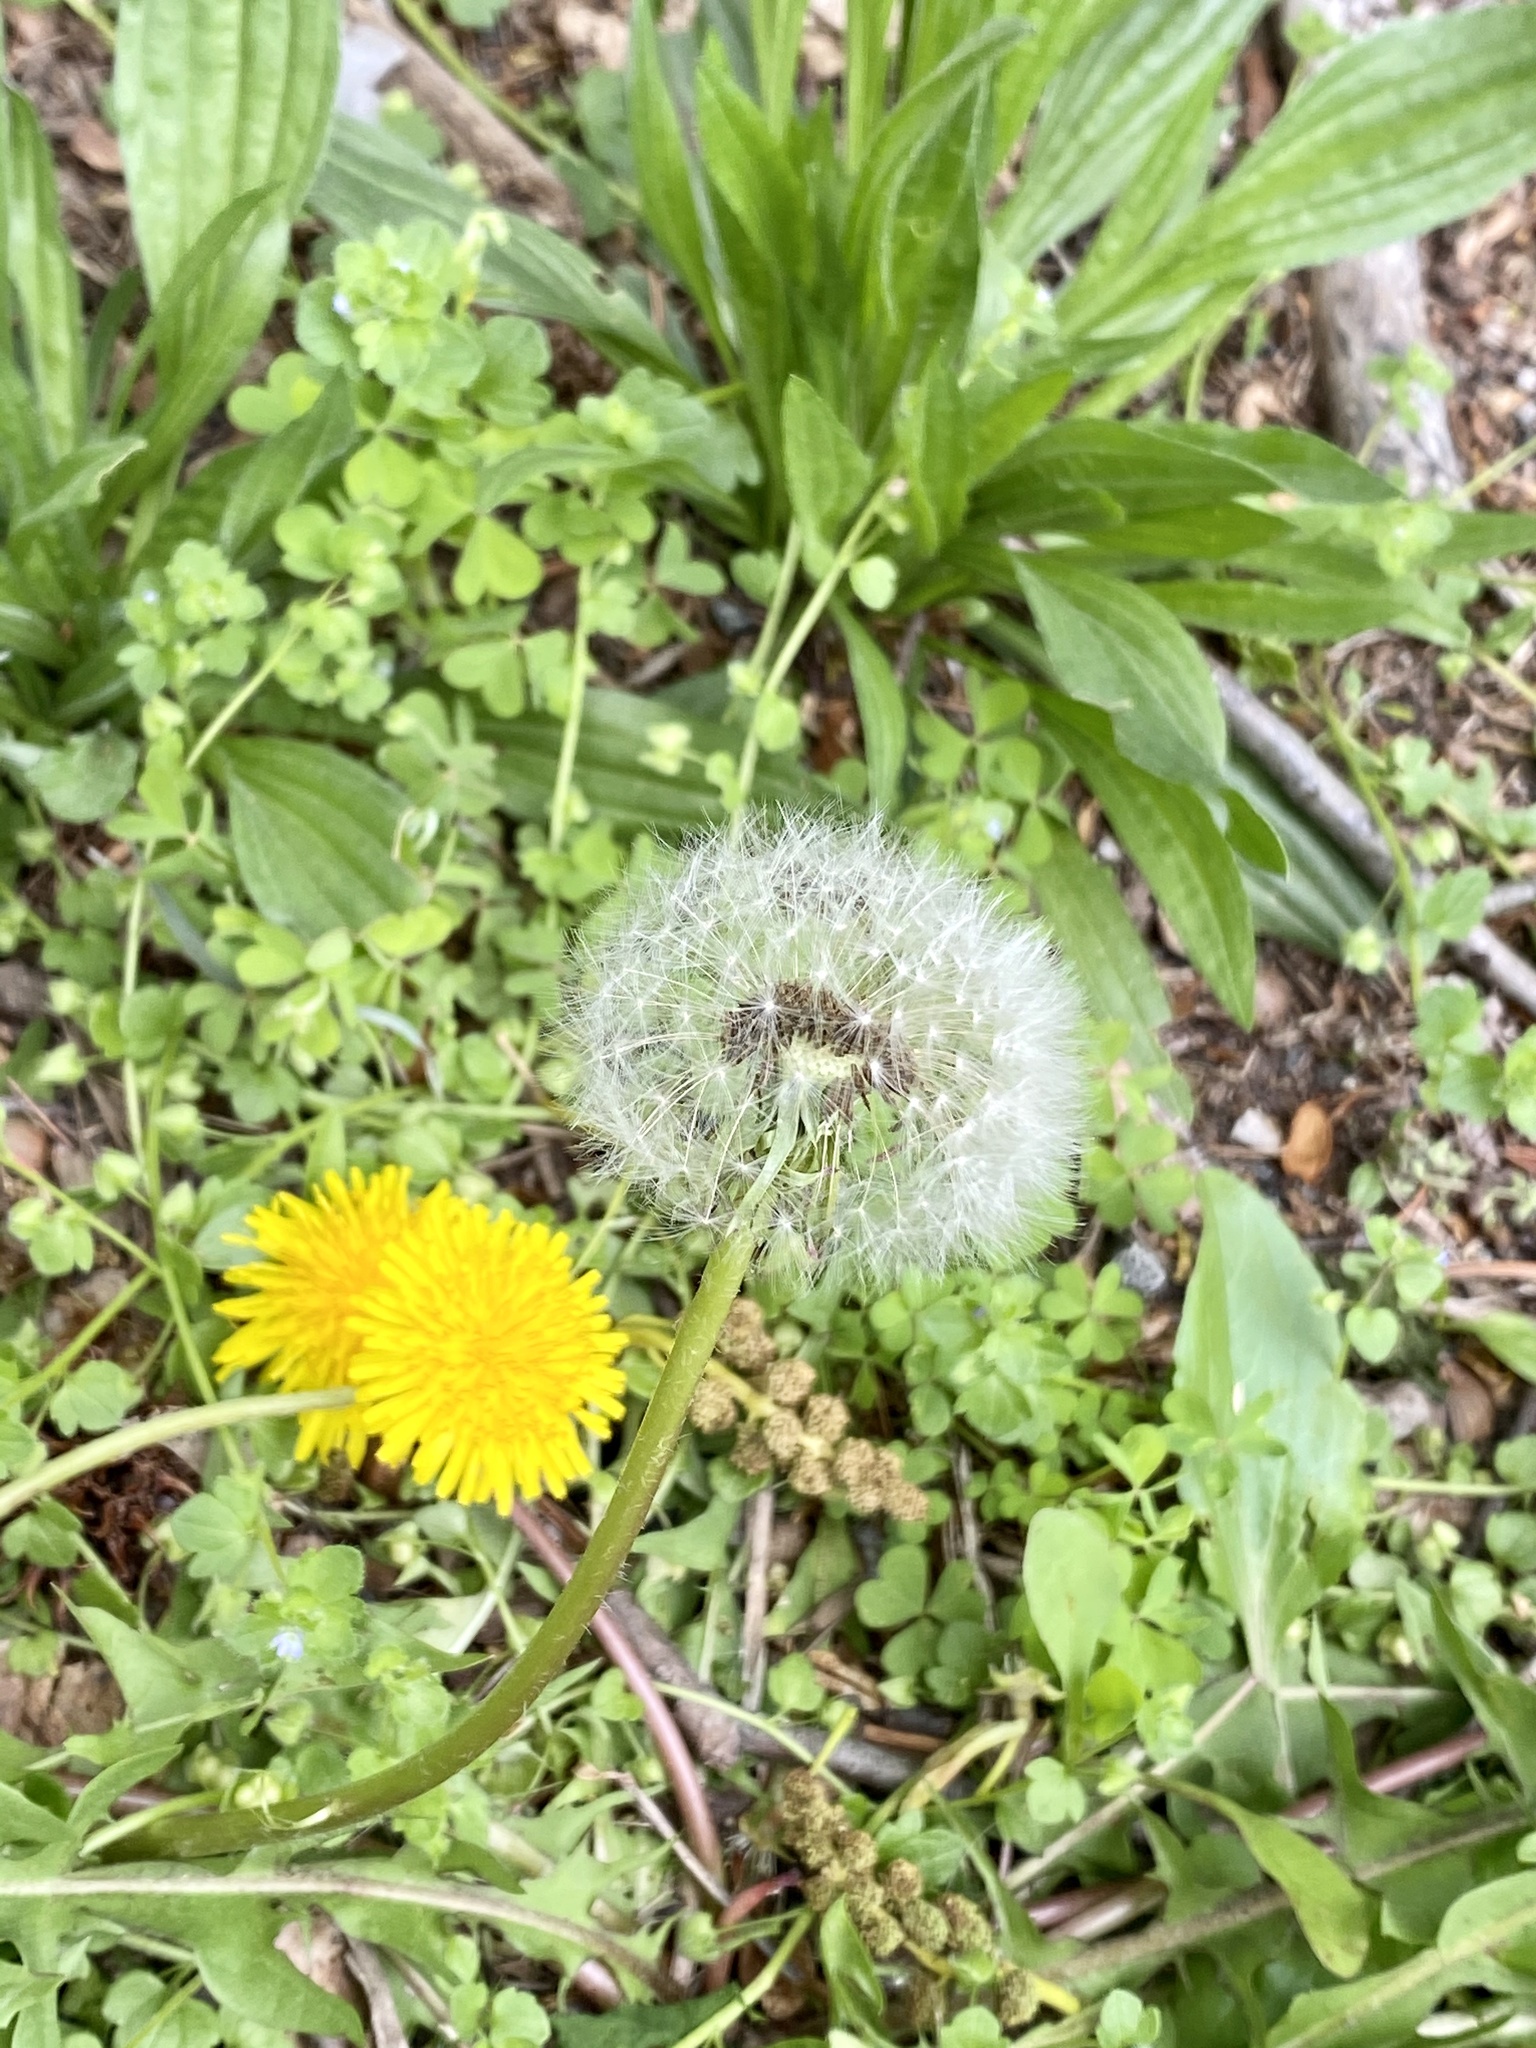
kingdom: Plantae
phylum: Tracheophyta
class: Magnoliopsida
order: Asterales
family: Asteraceae
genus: Taraxacum
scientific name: Taraxacum officinale
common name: Common dandelion
